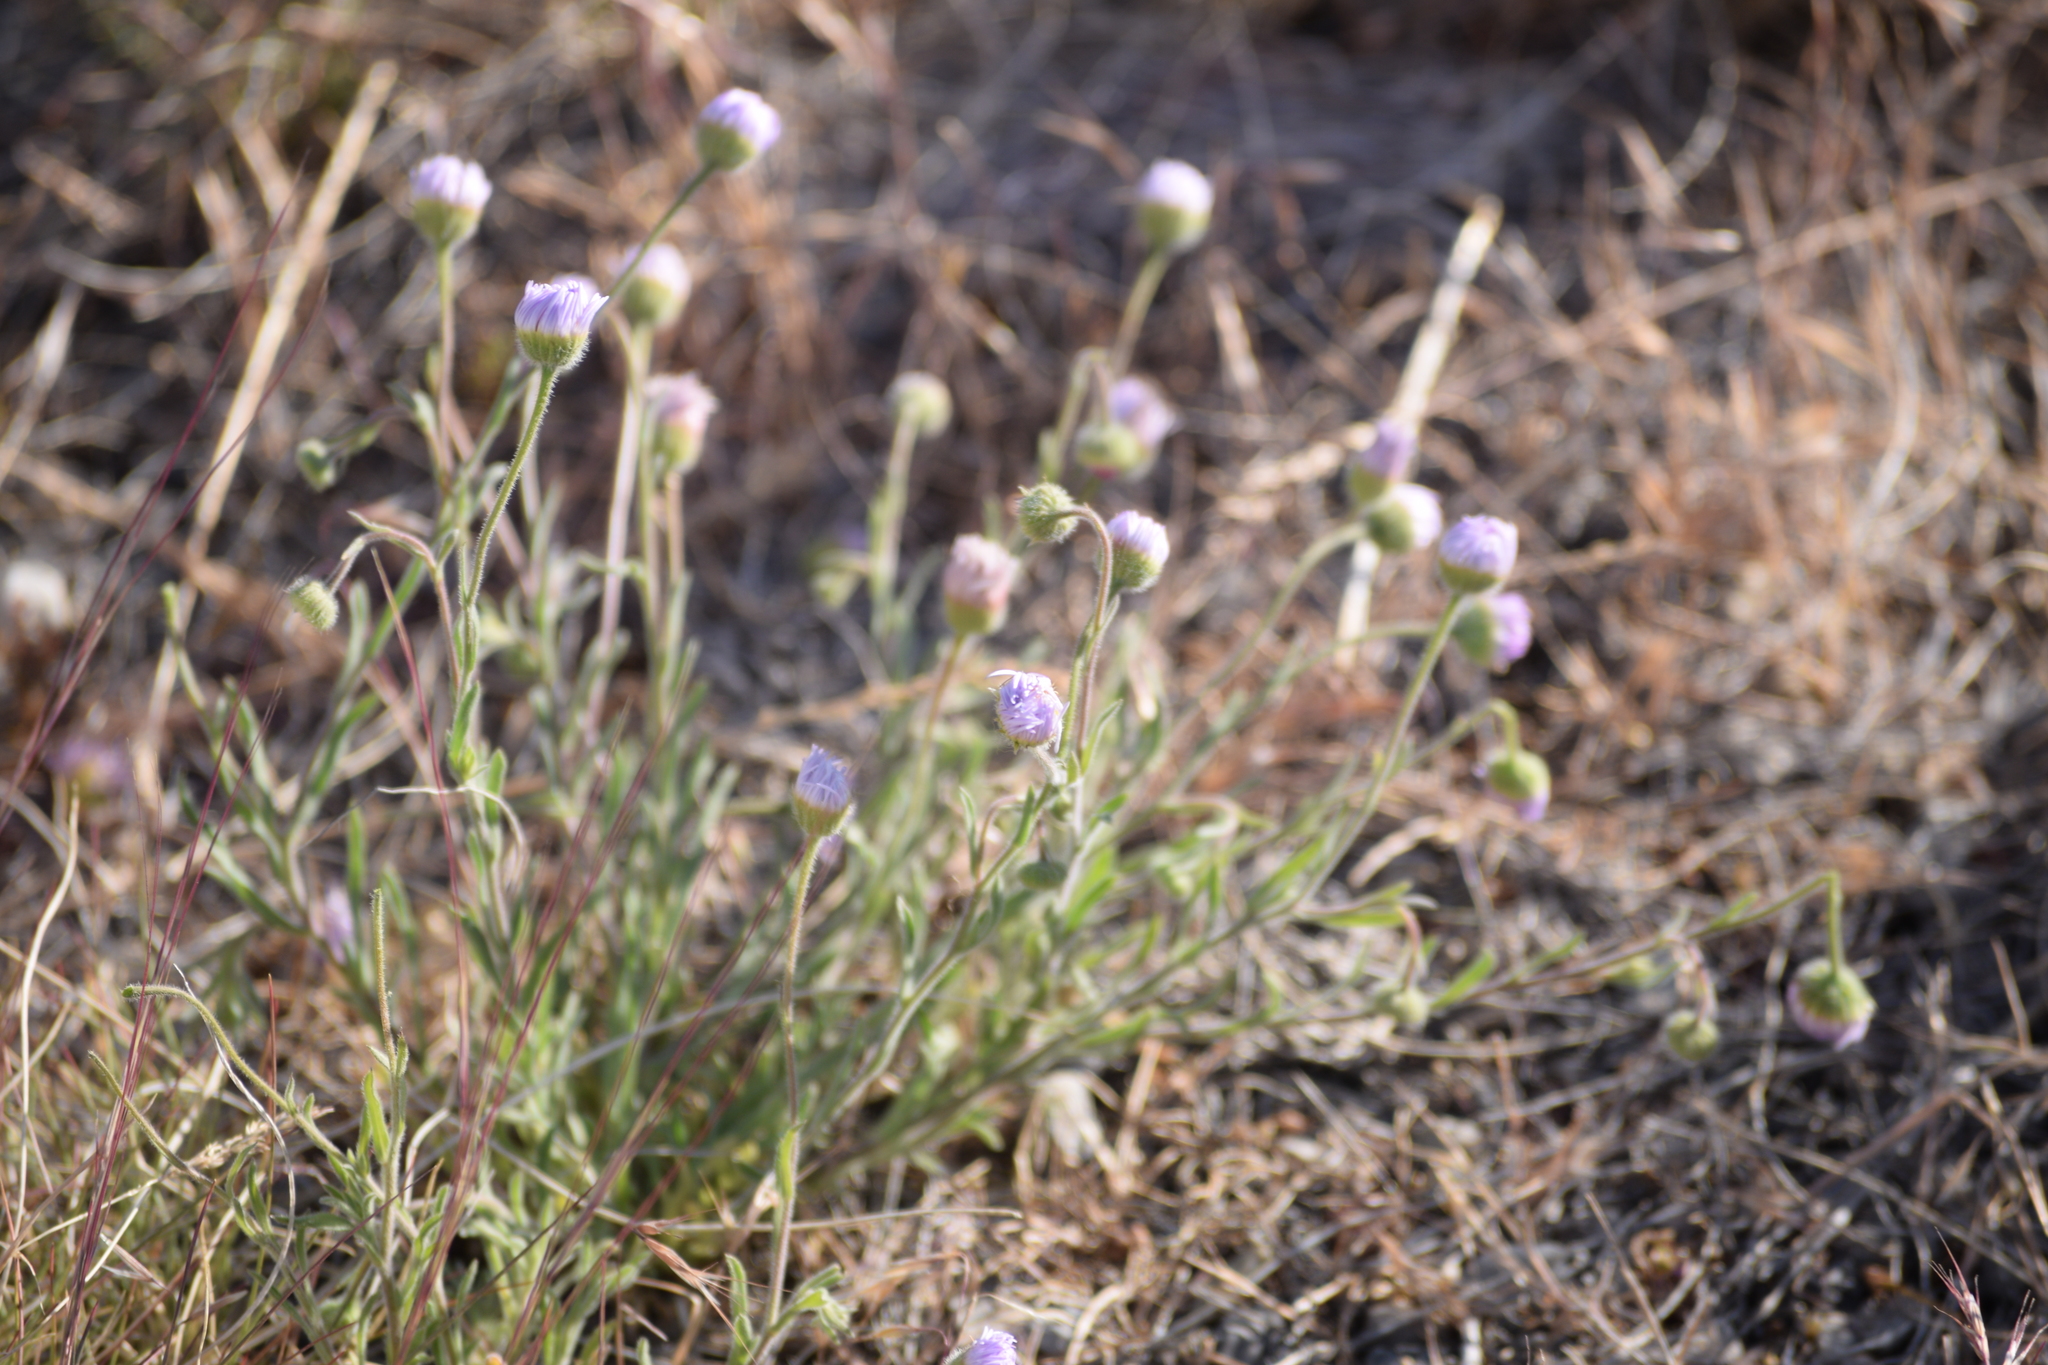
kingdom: Plantae
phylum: Tracheophyta
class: Magnoliopsida
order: Asterales
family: Asteraceae
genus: Erigeron
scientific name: Erigeron divergens
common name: Diffuse fleabane
